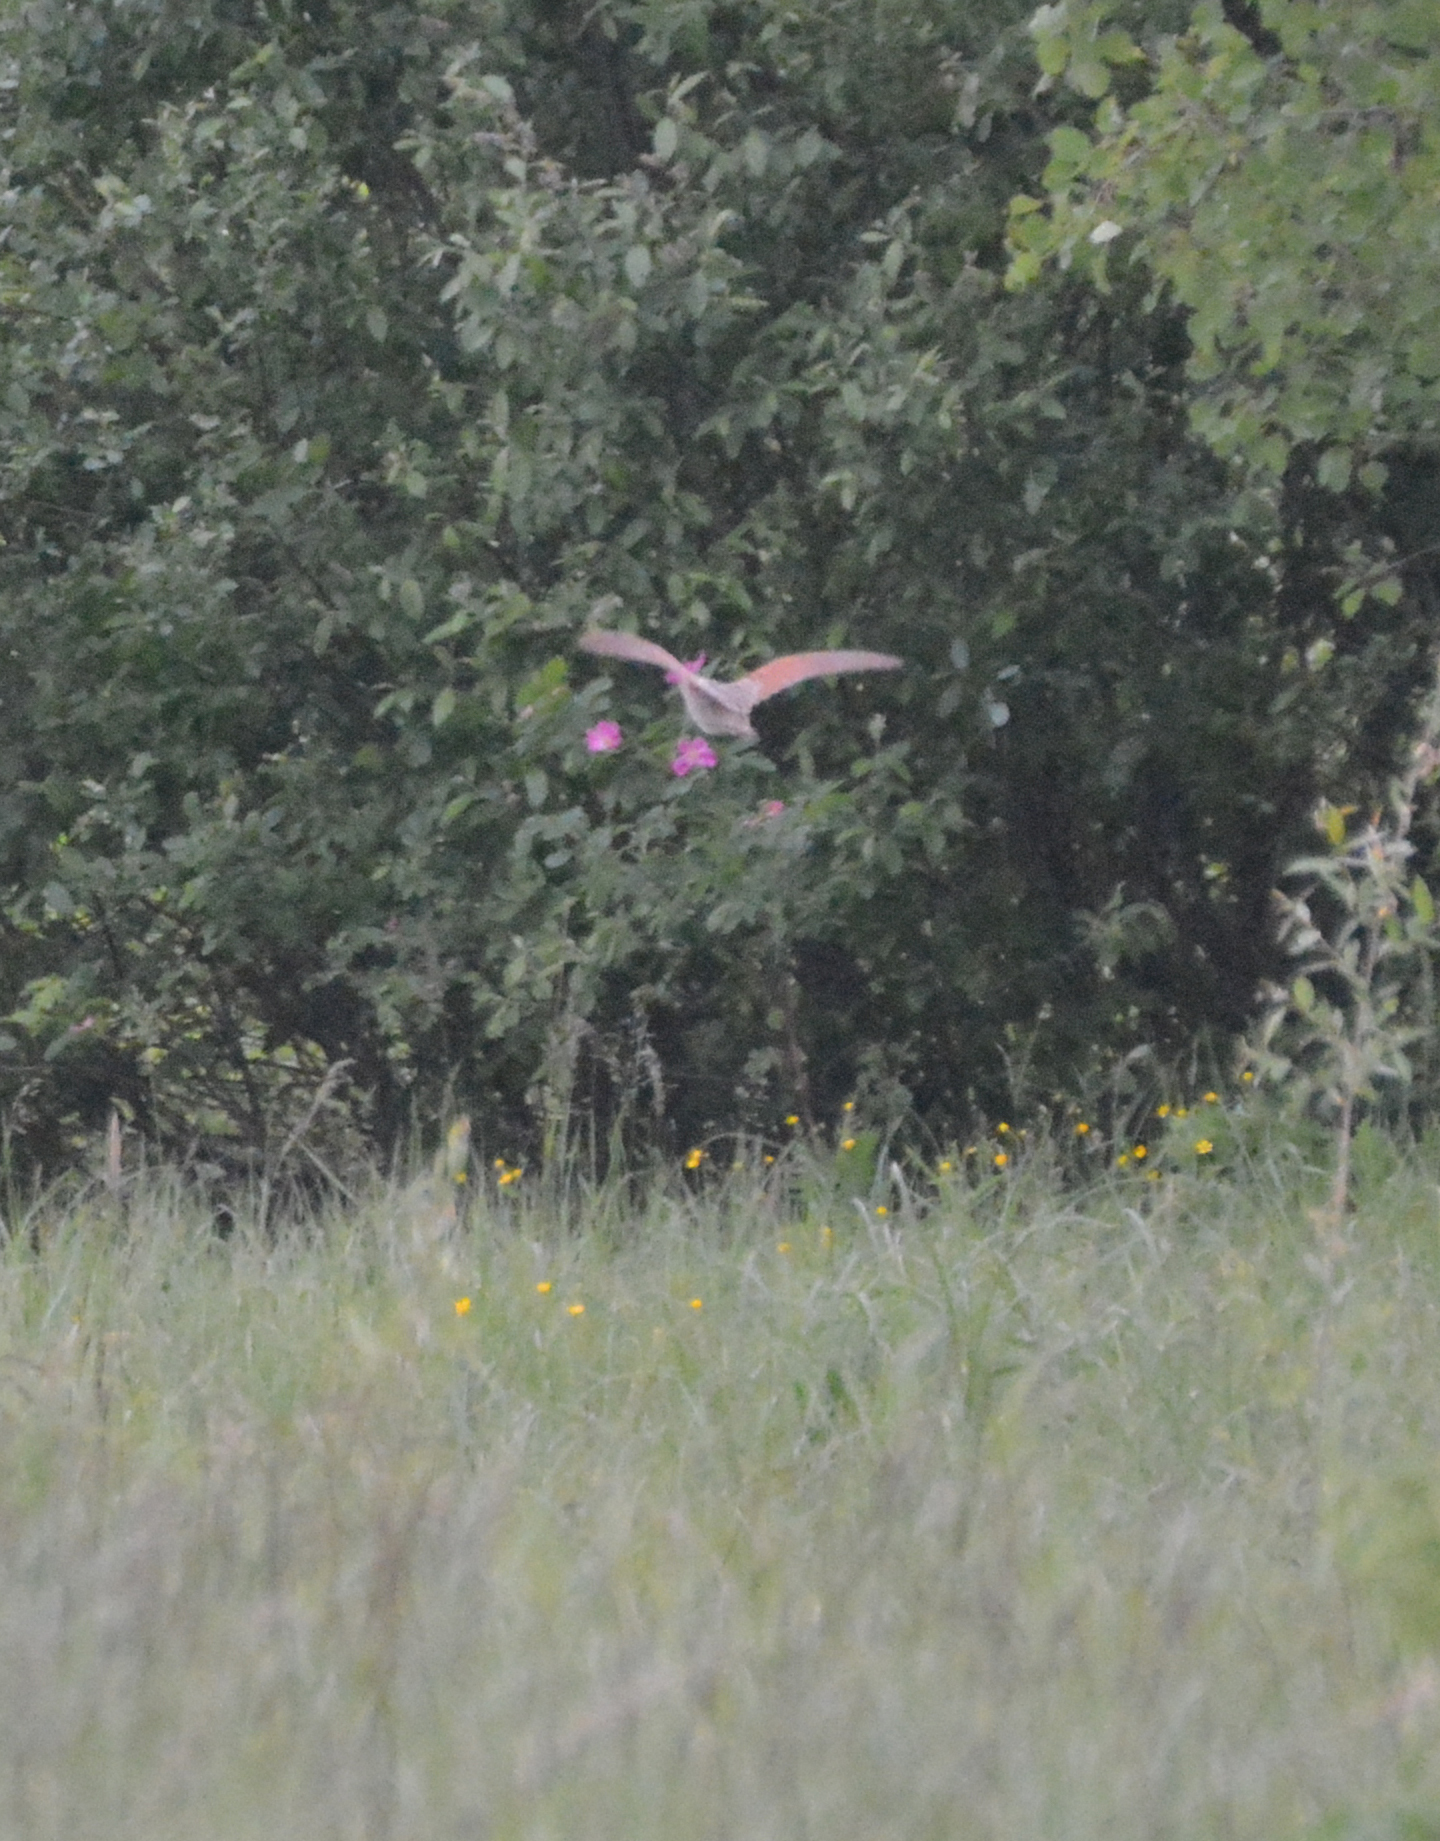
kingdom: Animalia
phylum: Chordata
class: Aves
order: Gruiformes
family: Rallidae
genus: Crex
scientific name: Crex crex
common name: Corn crake
